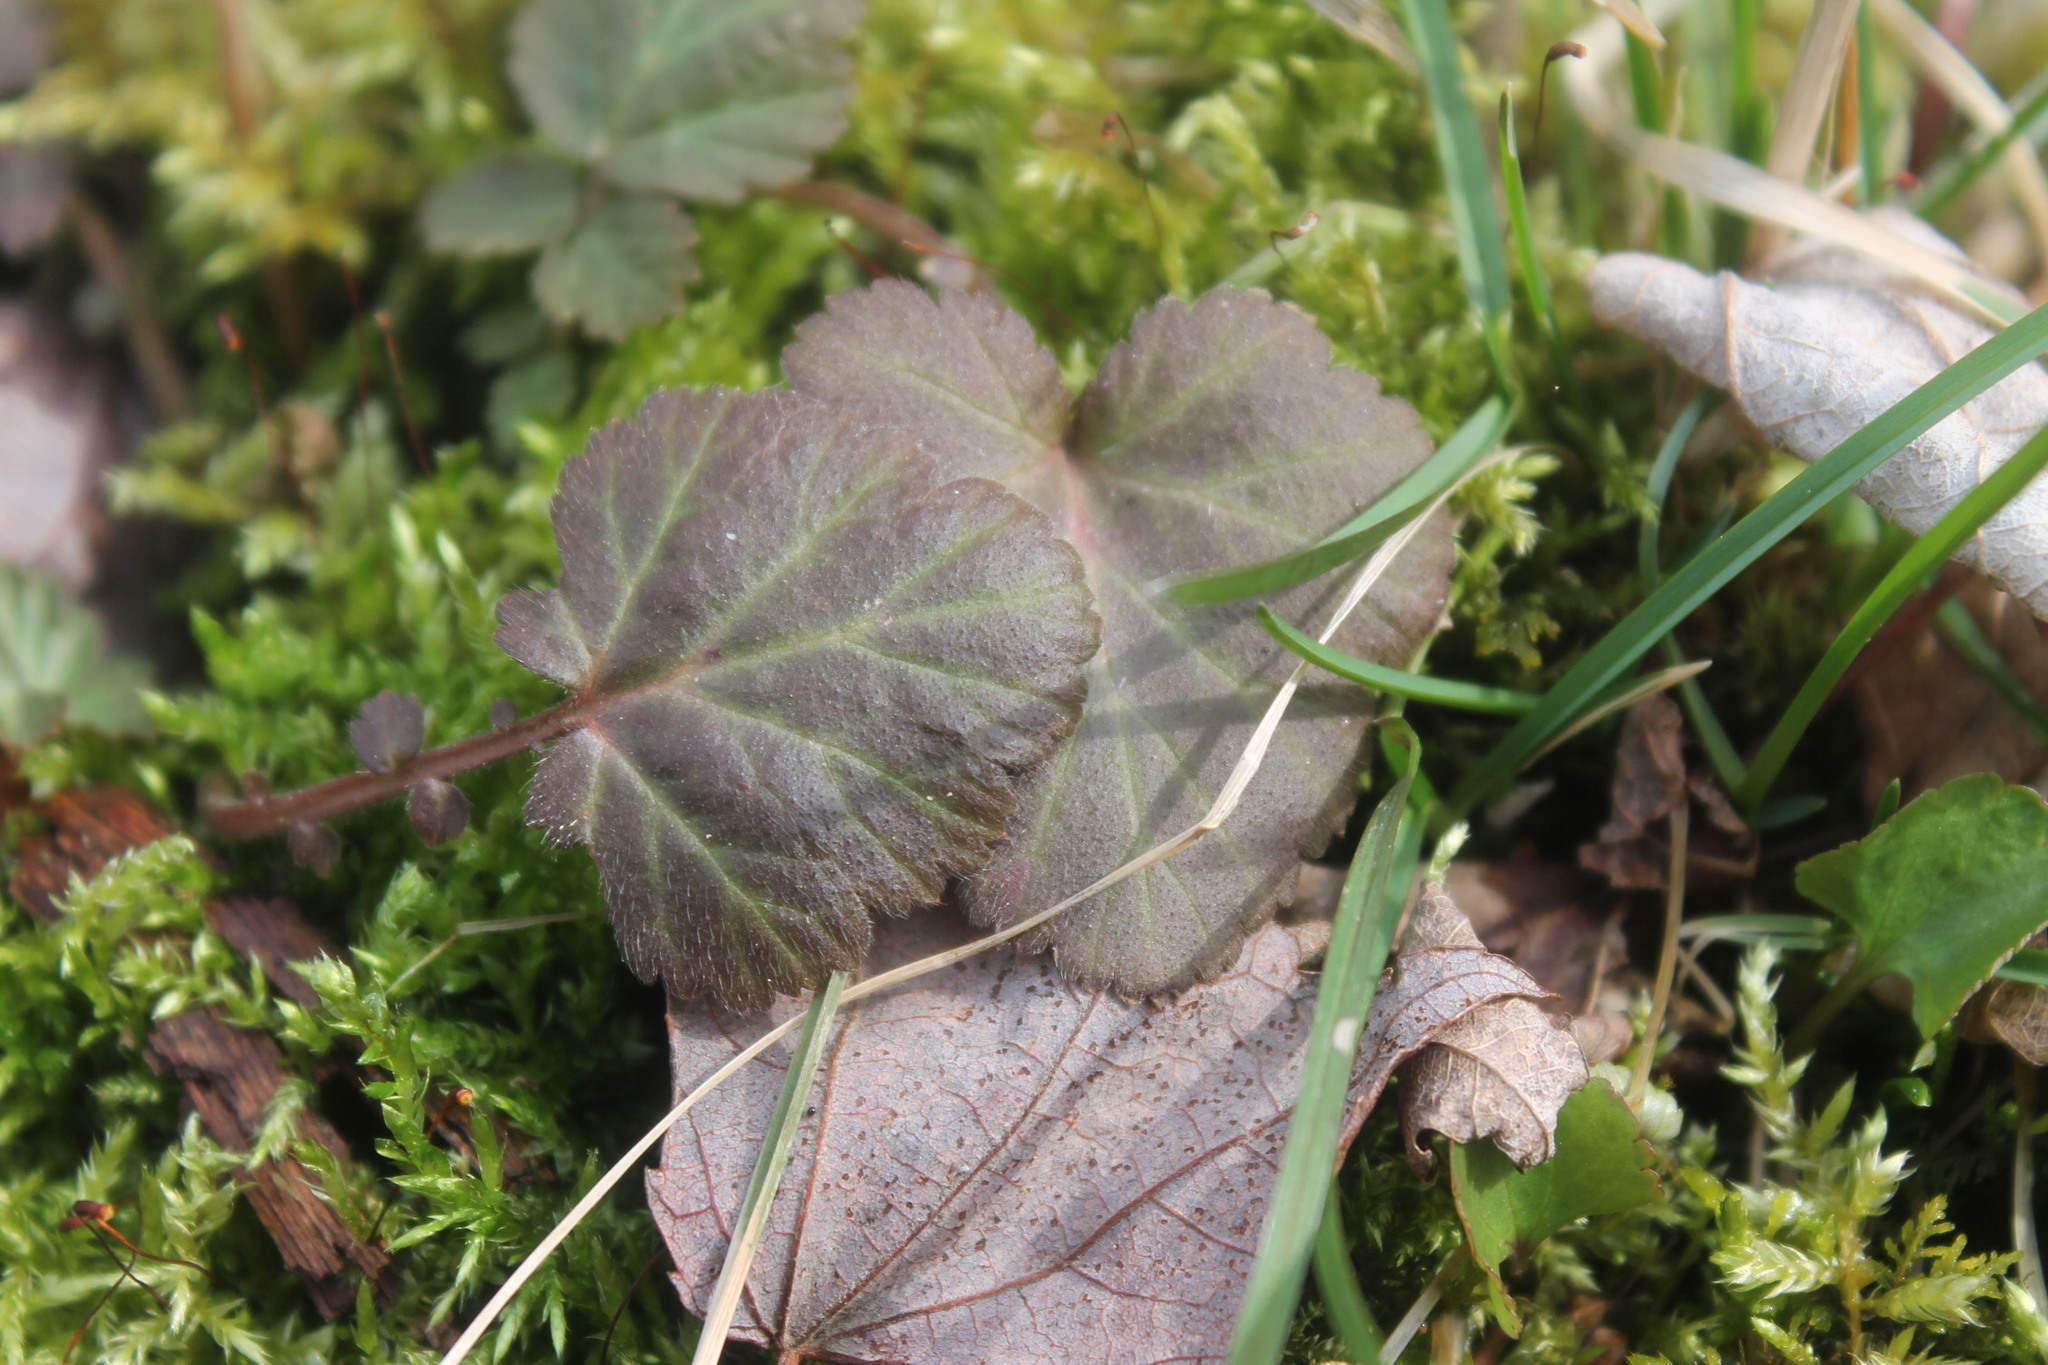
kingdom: Plantae
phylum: Tracheophyta
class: Magnoliopsida
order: Rosales
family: Rosaceae
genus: Geum
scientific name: Geum canadense
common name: White avens
